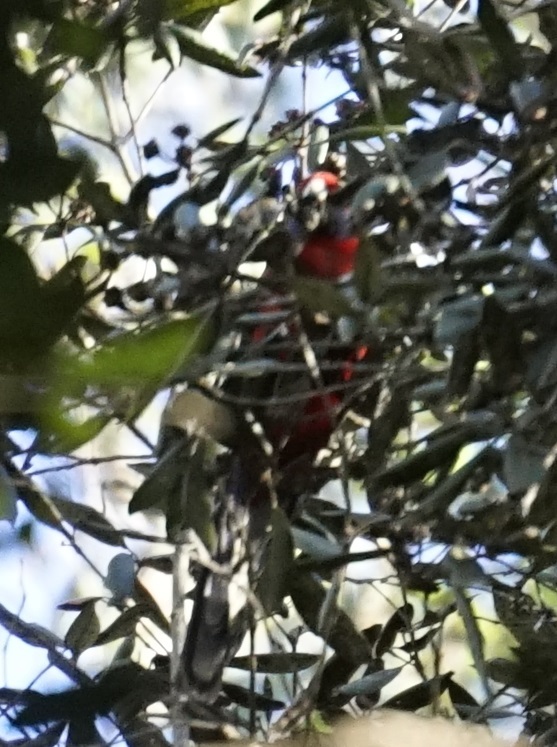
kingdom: Animalia
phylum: Chordata
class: Aves
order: Psittaciformes
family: Psittacidae
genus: Platycercus
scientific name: Platycercus elegans
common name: Crimson rosella
